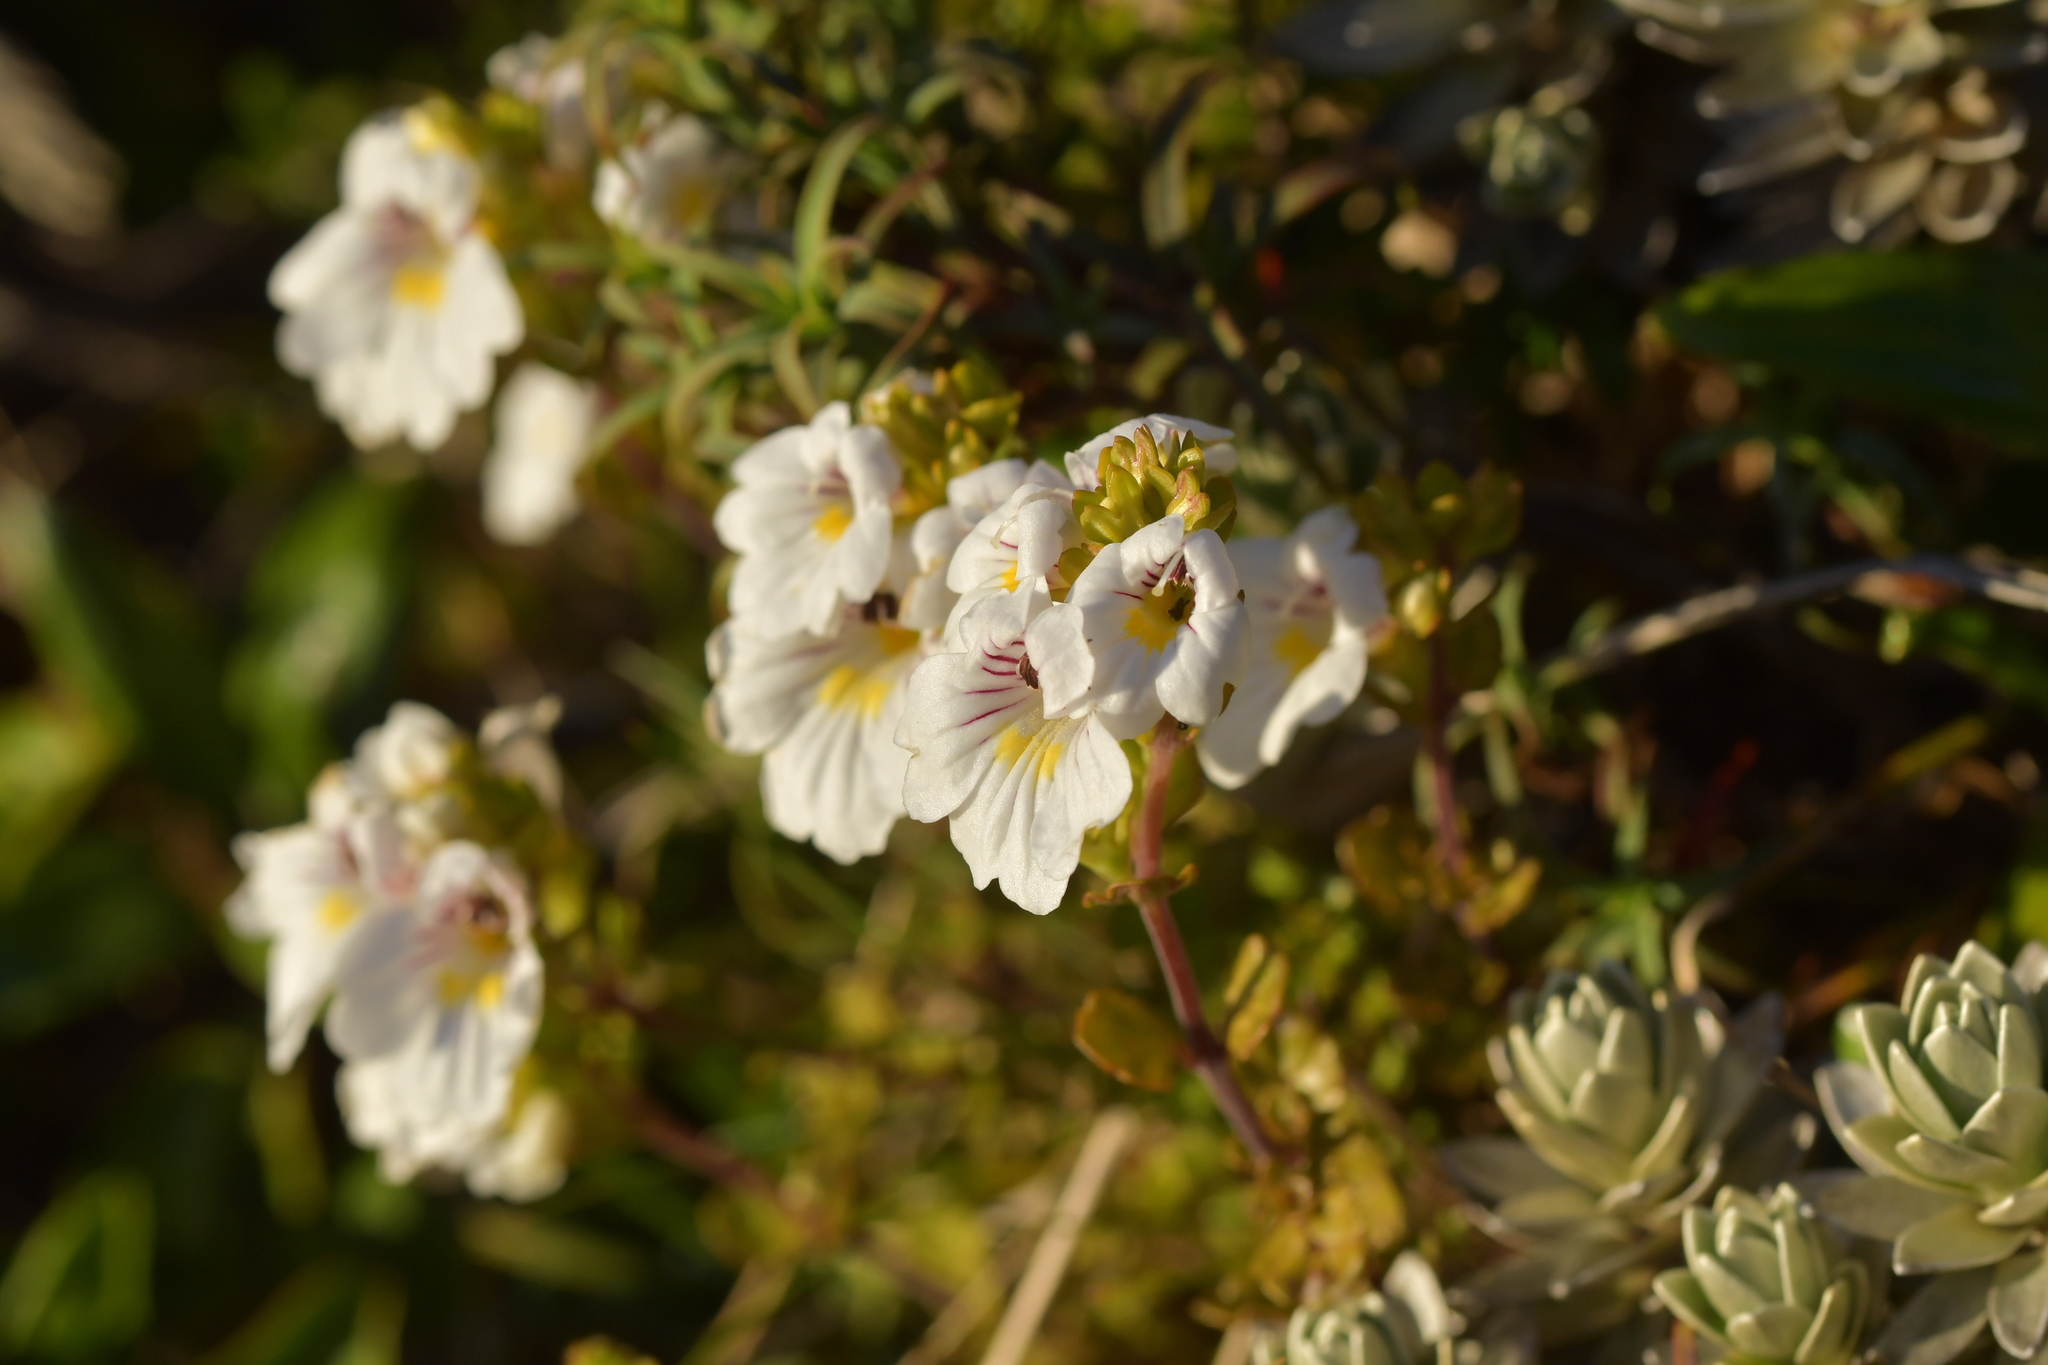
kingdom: Plantae
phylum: Tracheophyta
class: Magnoliopsida
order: Lamiales
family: Orobanchaceae
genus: Euphrasia
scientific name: Euphrasia cuneata
